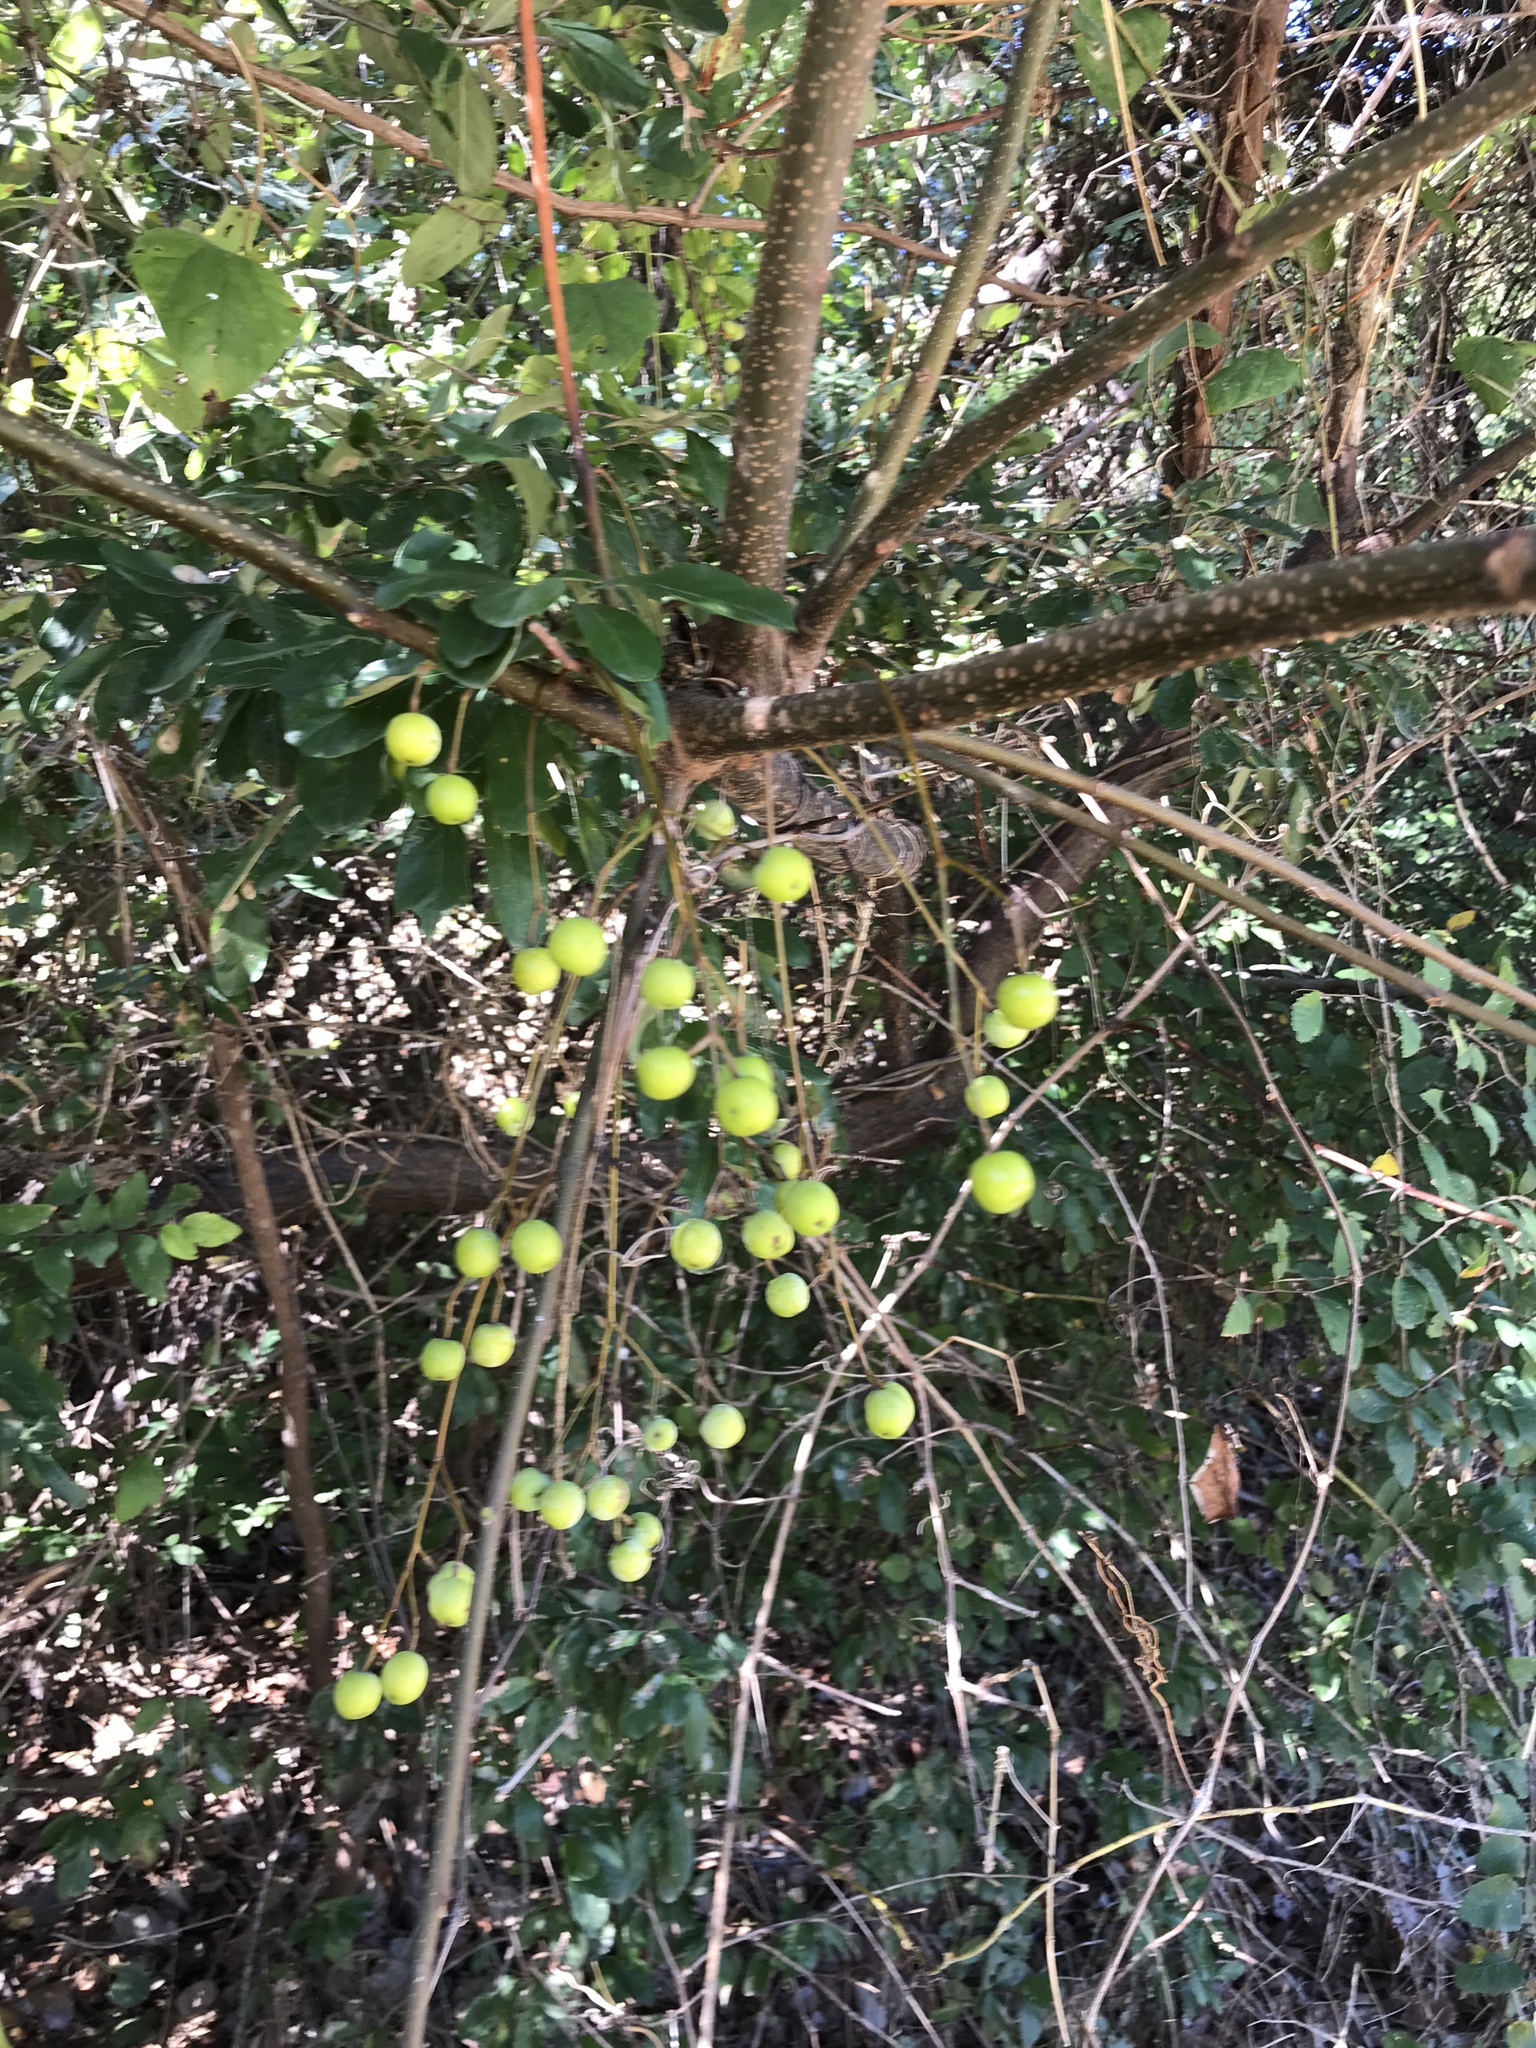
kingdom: Plantae
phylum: Tracheophyta
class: Magnoliopsida
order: Sapindales
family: Meliaceae
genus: Melia
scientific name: Melia azedarach
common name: Chinaberrytree
